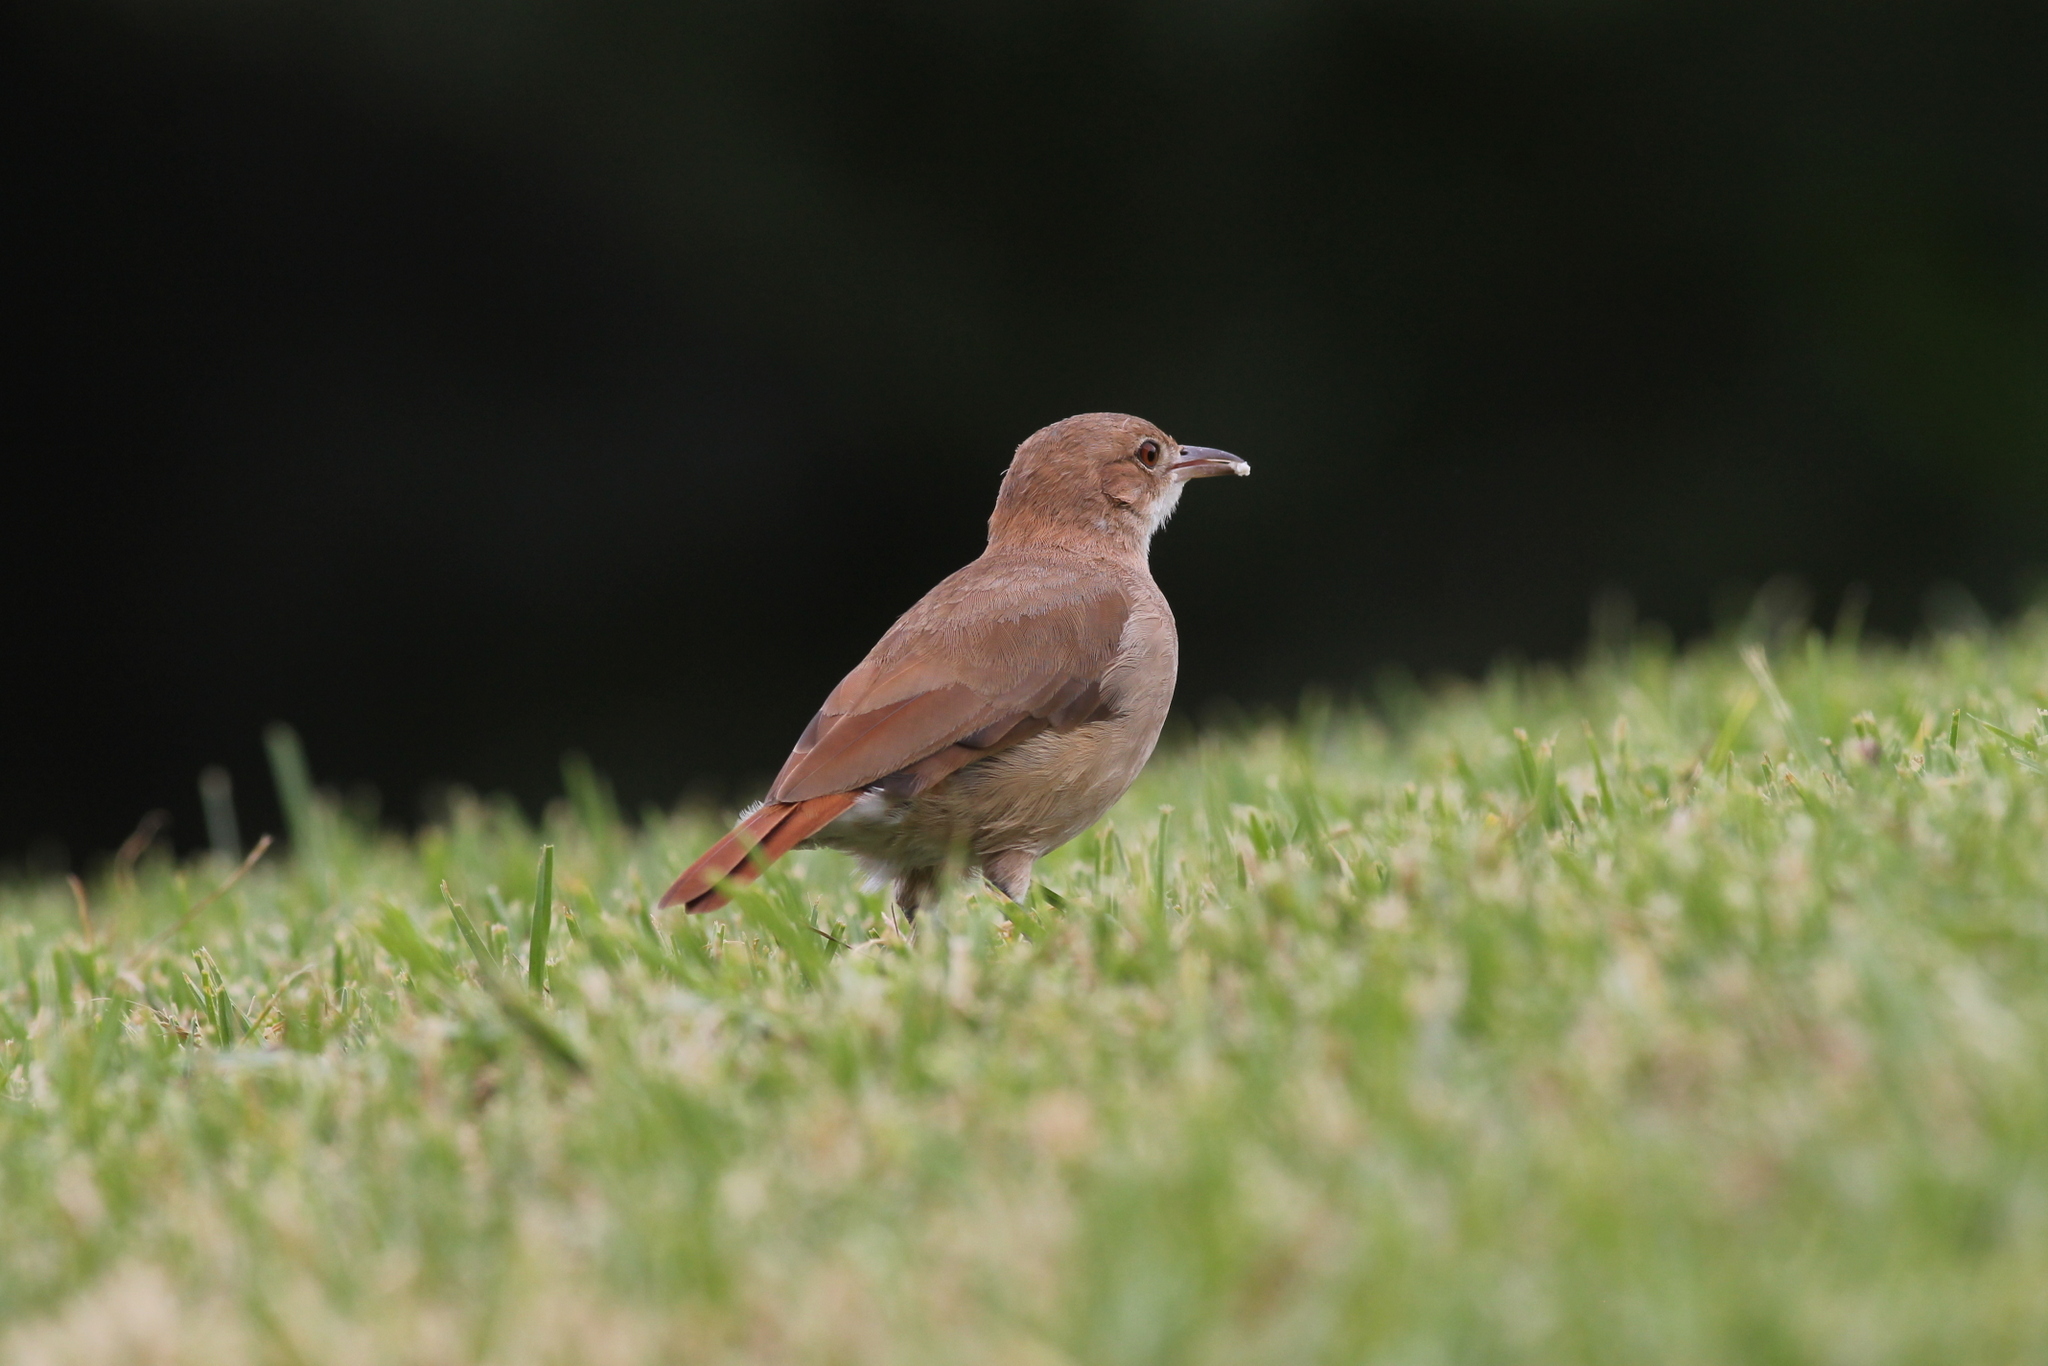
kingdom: Animalia
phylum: Chordata
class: Aves
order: Passeriformes
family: Furnariidae
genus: Furnarius
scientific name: Furnarius rufus
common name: Rufous hornero
